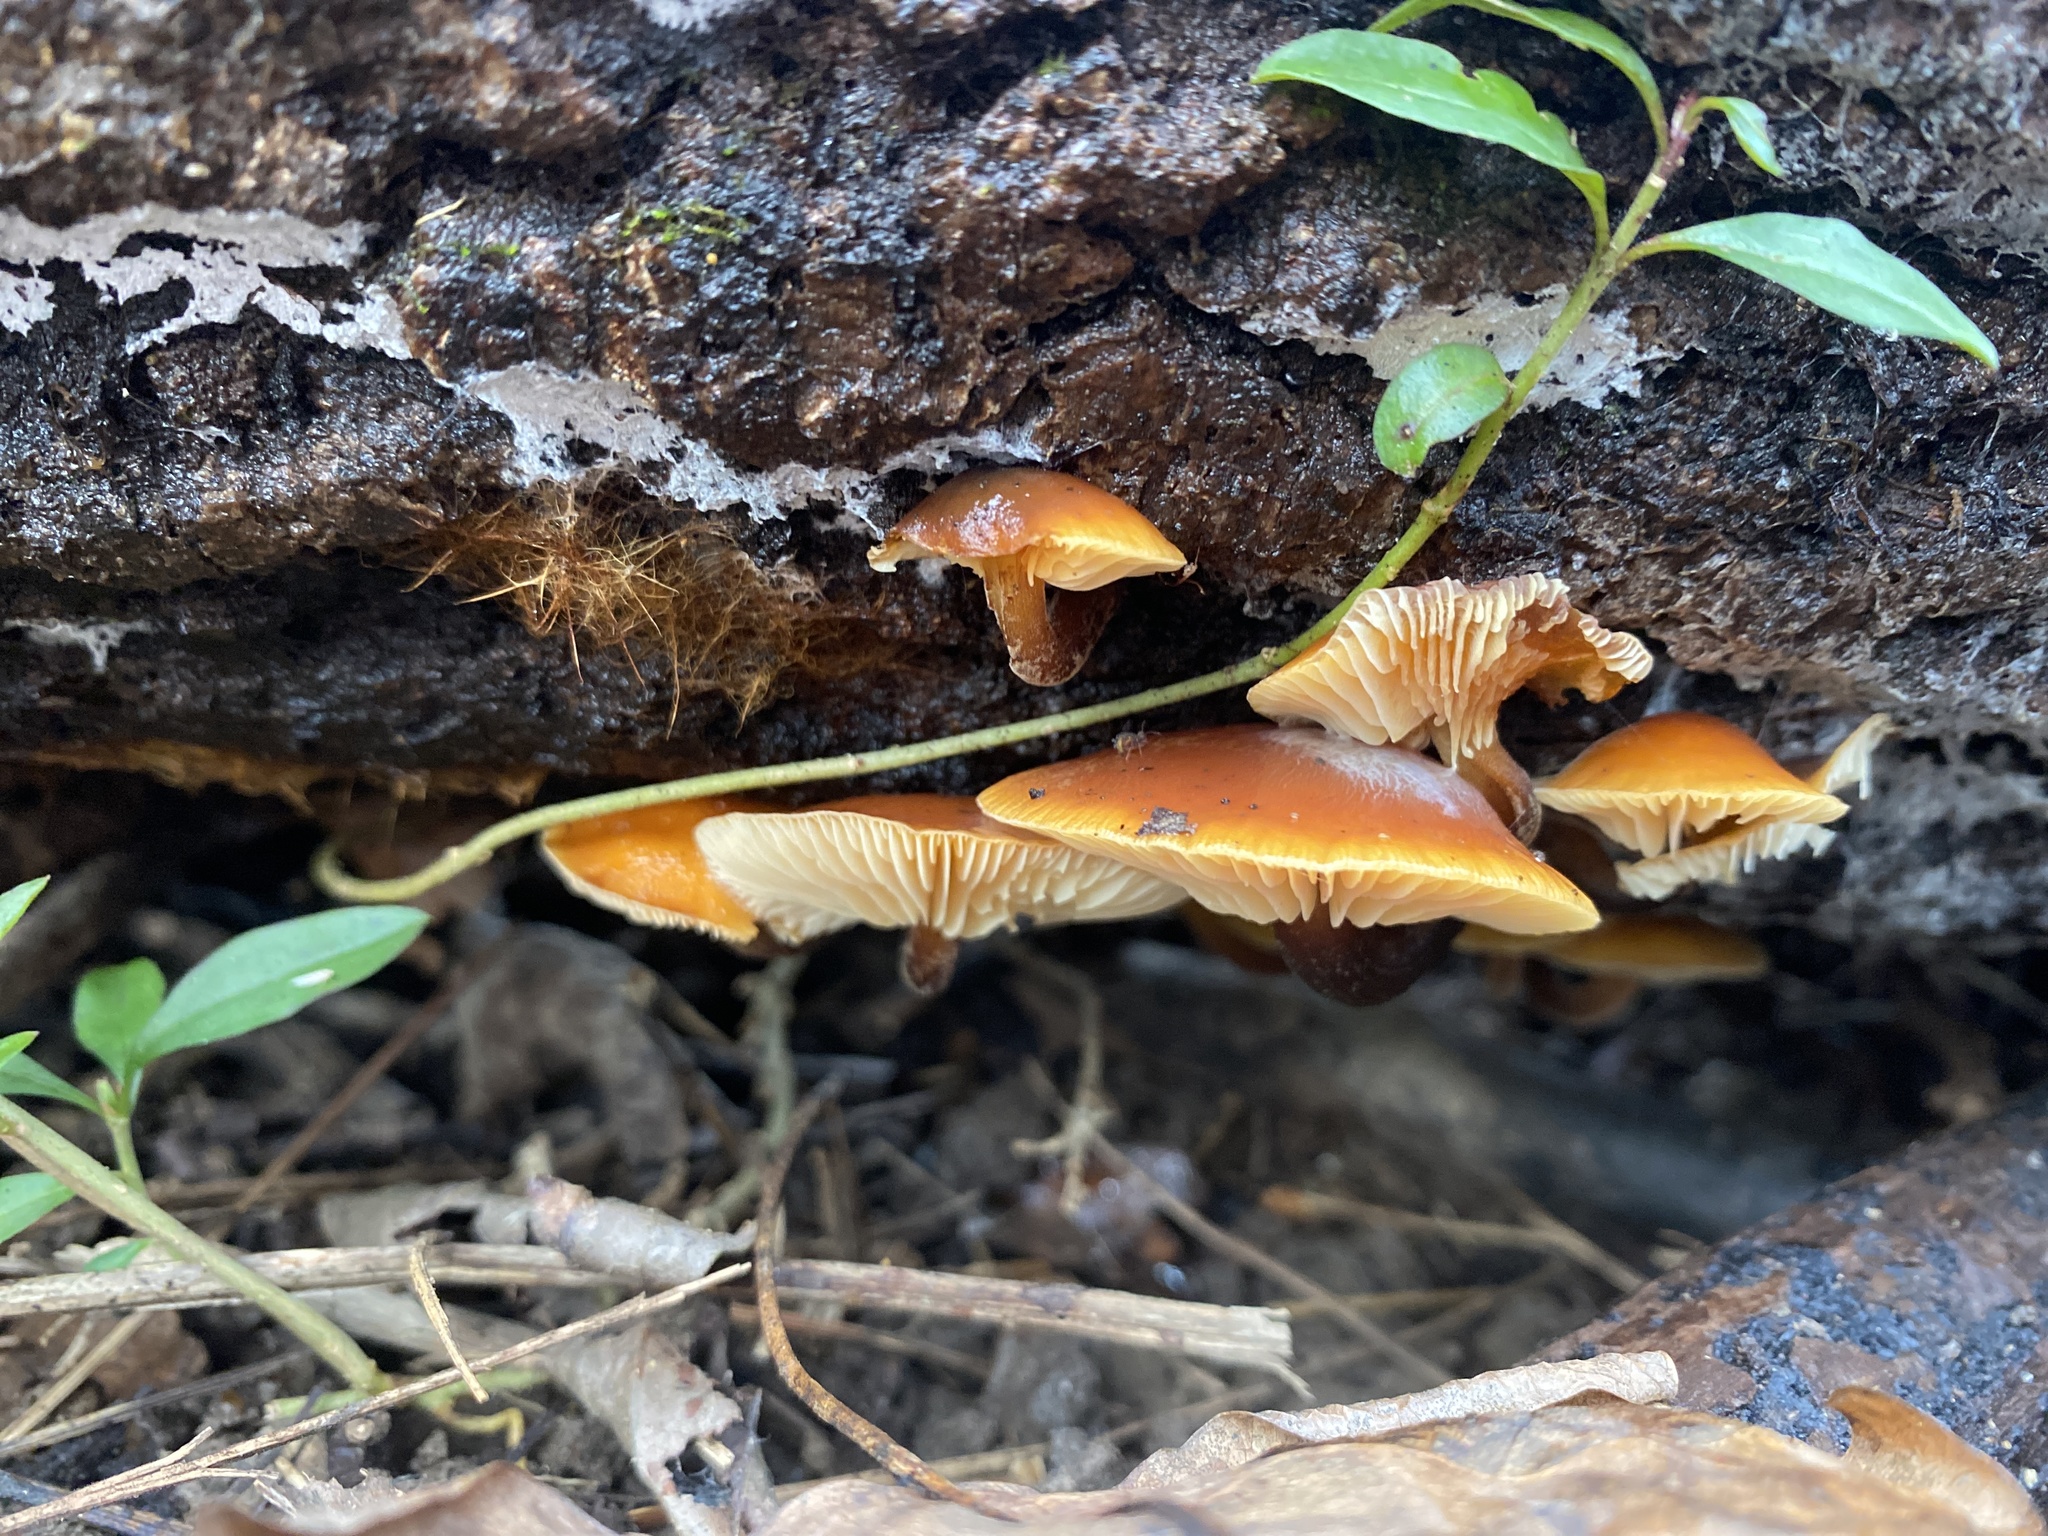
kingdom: Fungi
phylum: Basidiomycota
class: Agaricomycetes
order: Agaricales
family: Physalacriaceae
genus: Flammulina
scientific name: Flammulina velutipes
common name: Velvet shank
